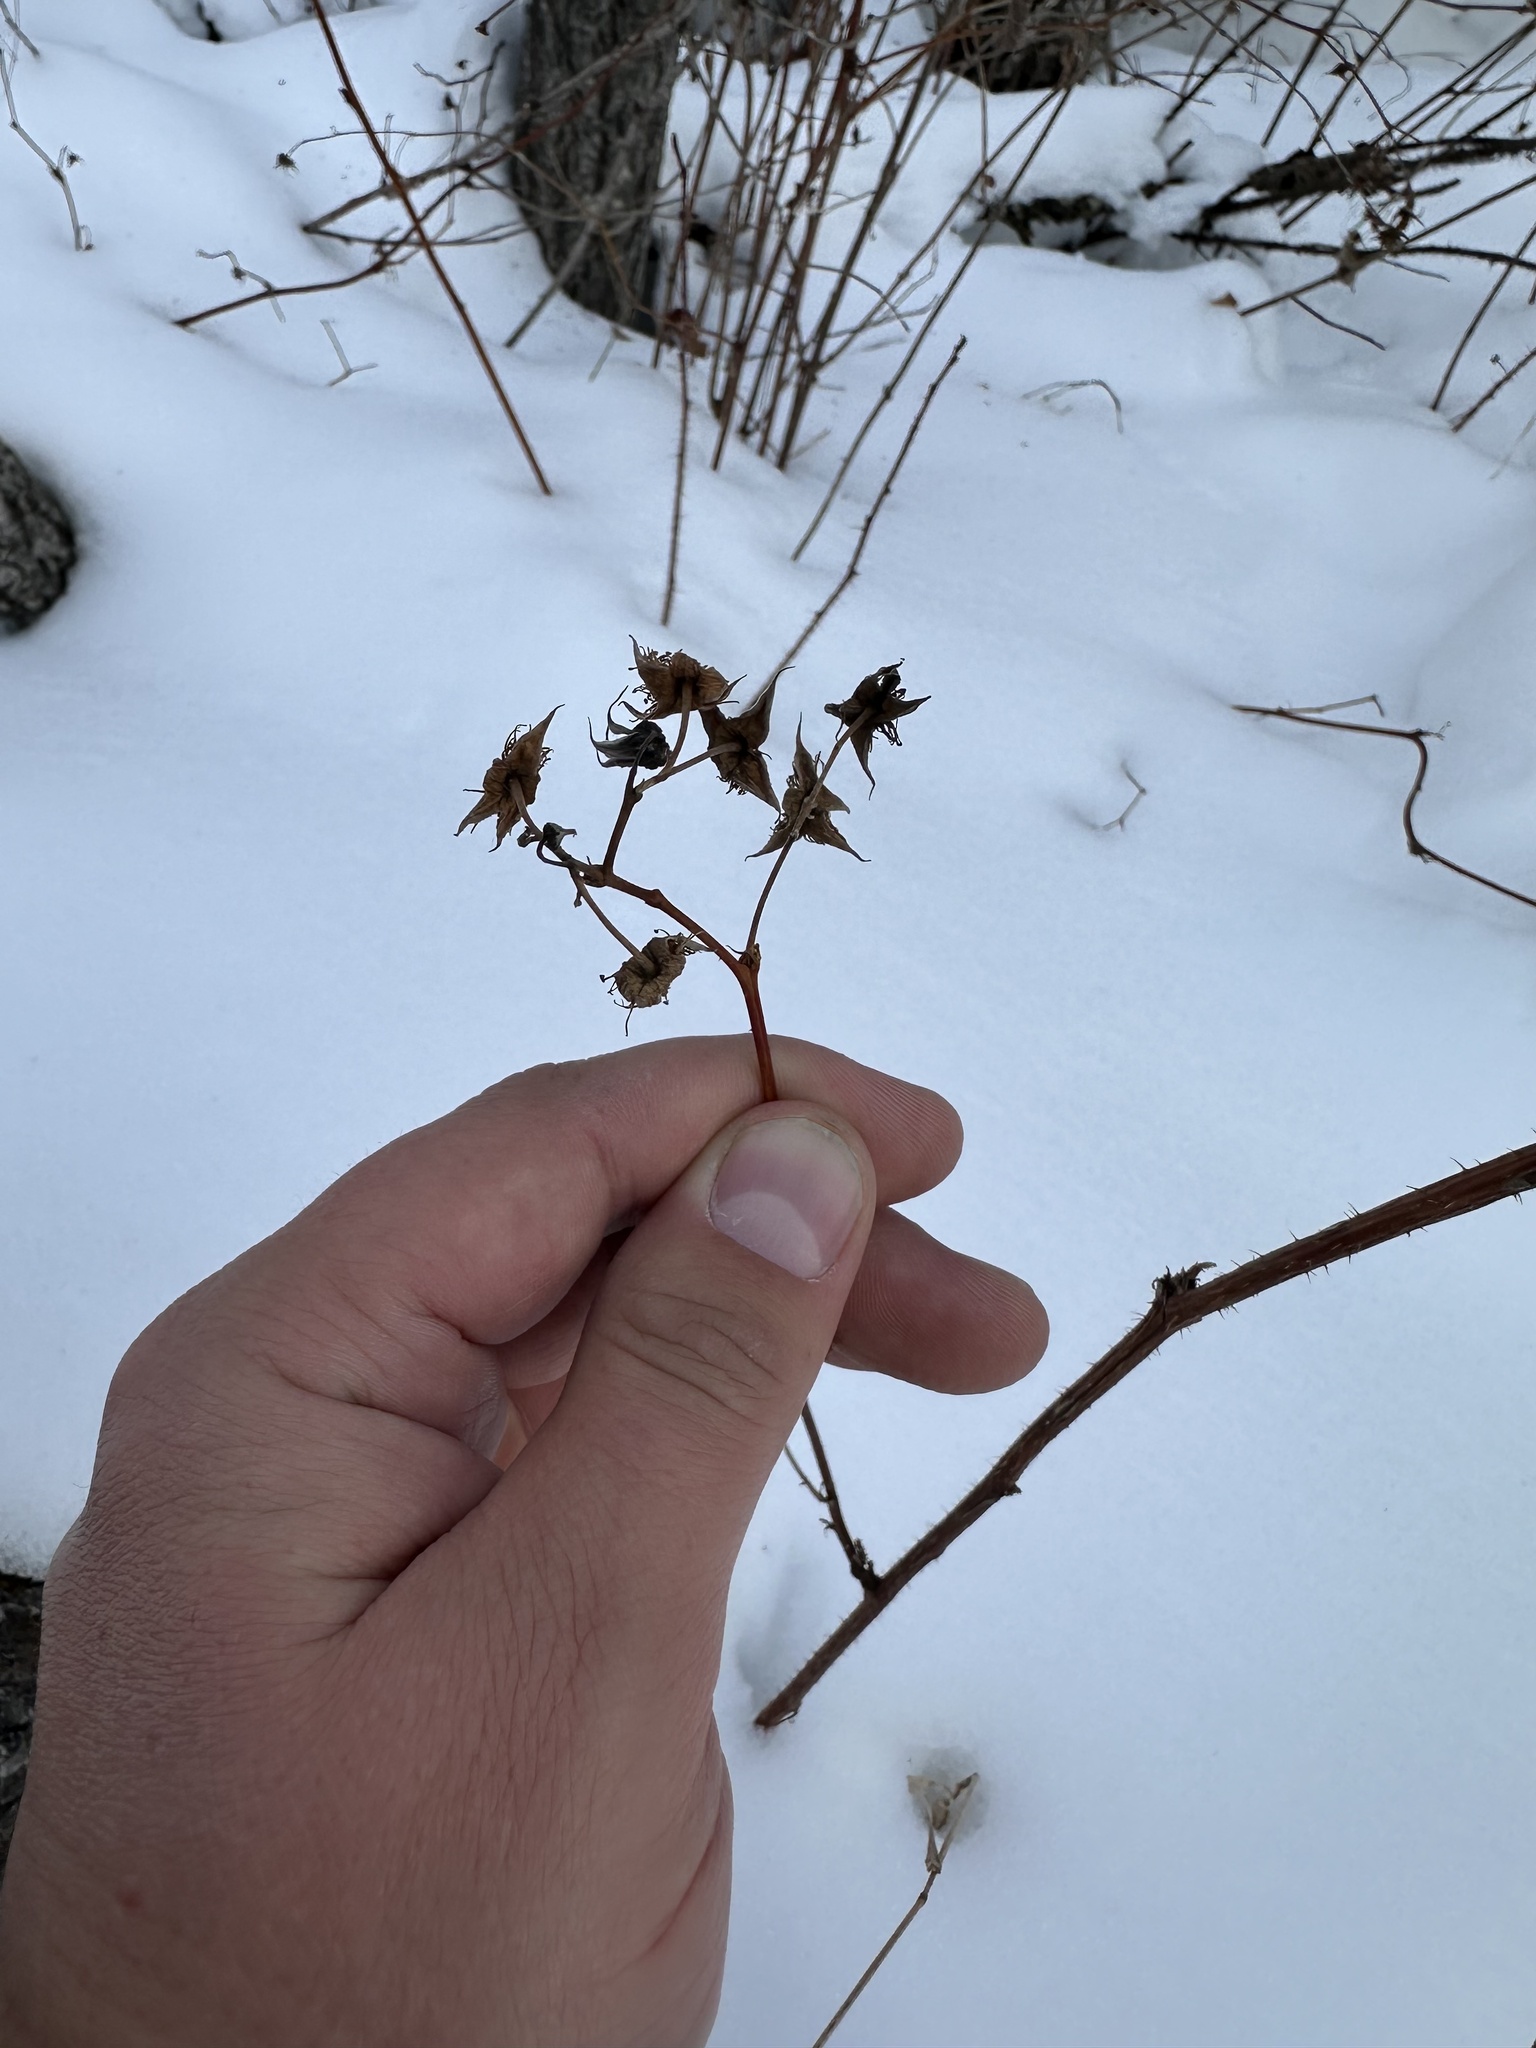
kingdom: Plantae
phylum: Tracheophyta
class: Magnoliopsida
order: Rosales
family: Rosaceae
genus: Rubus
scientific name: Rubus idaeus
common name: Raspberry
